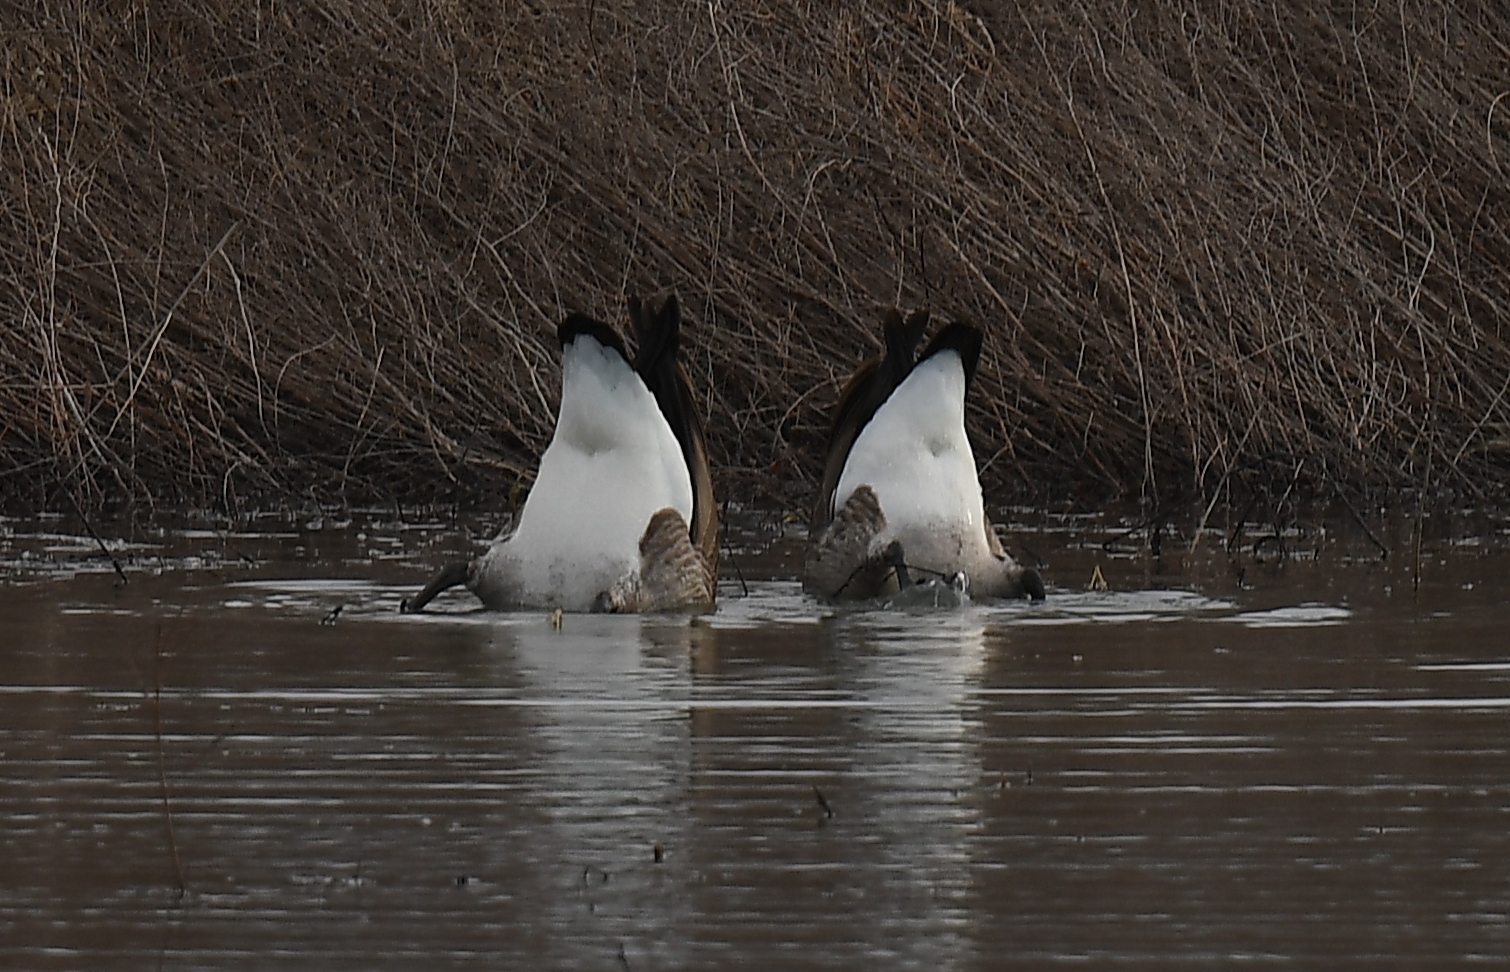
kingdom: Animalia
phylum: Chordata
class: Aves
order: Anseriformes
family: Anatidae
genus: Branta
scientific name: Branta canadensis
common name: Canada goose
